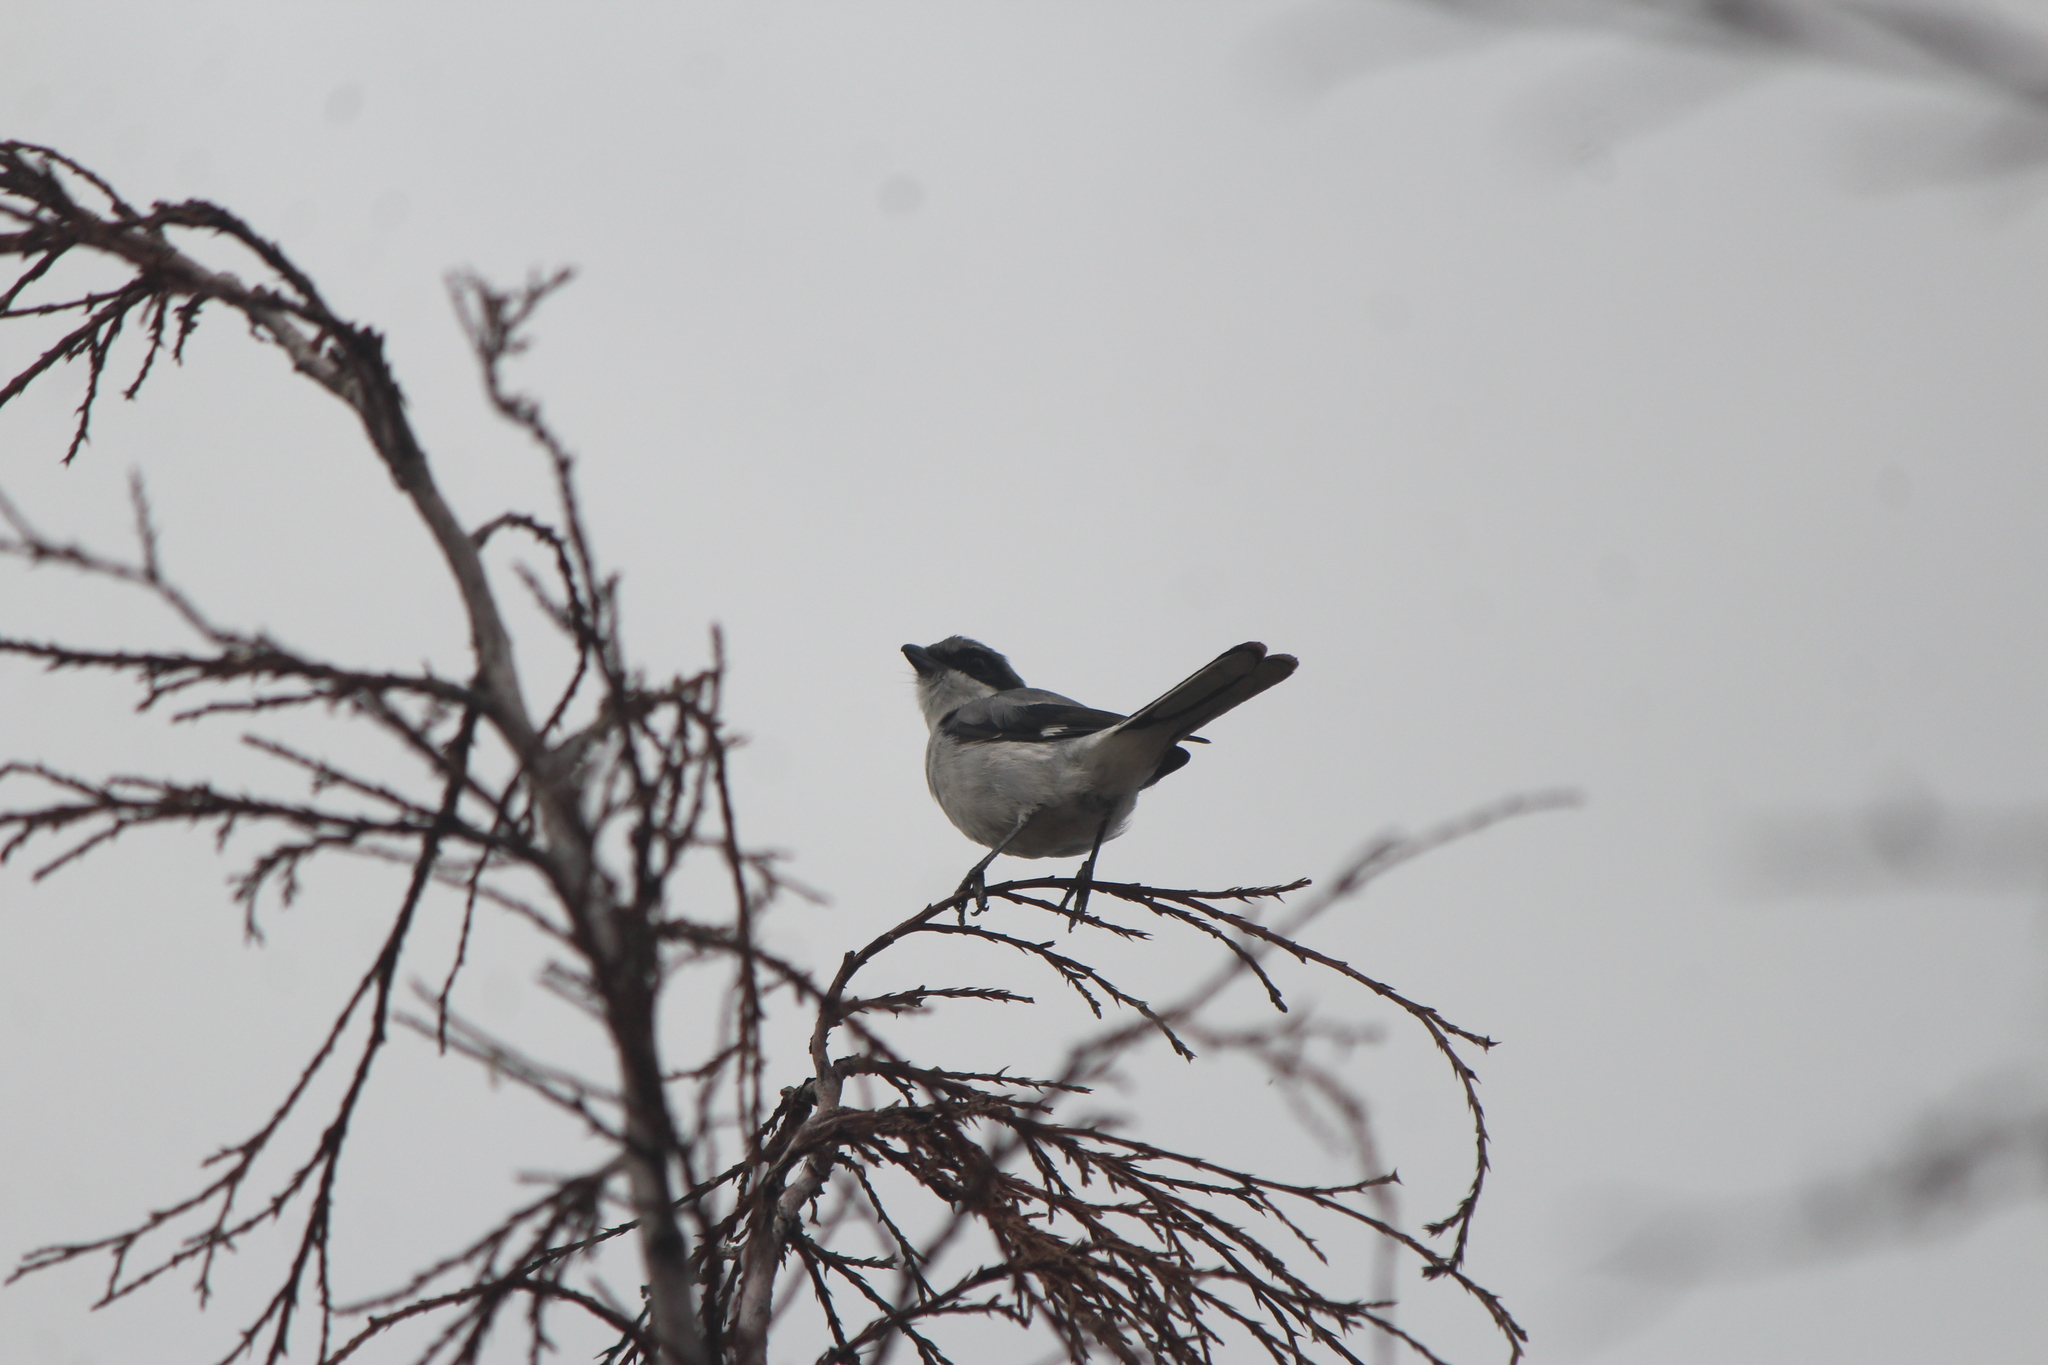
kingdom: Animalia
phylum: Chordata
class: Aves
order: Passeriformes
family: Laniidae
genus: Lanius
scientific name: Lanius ludovicianus
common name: Loggerhead shrike
